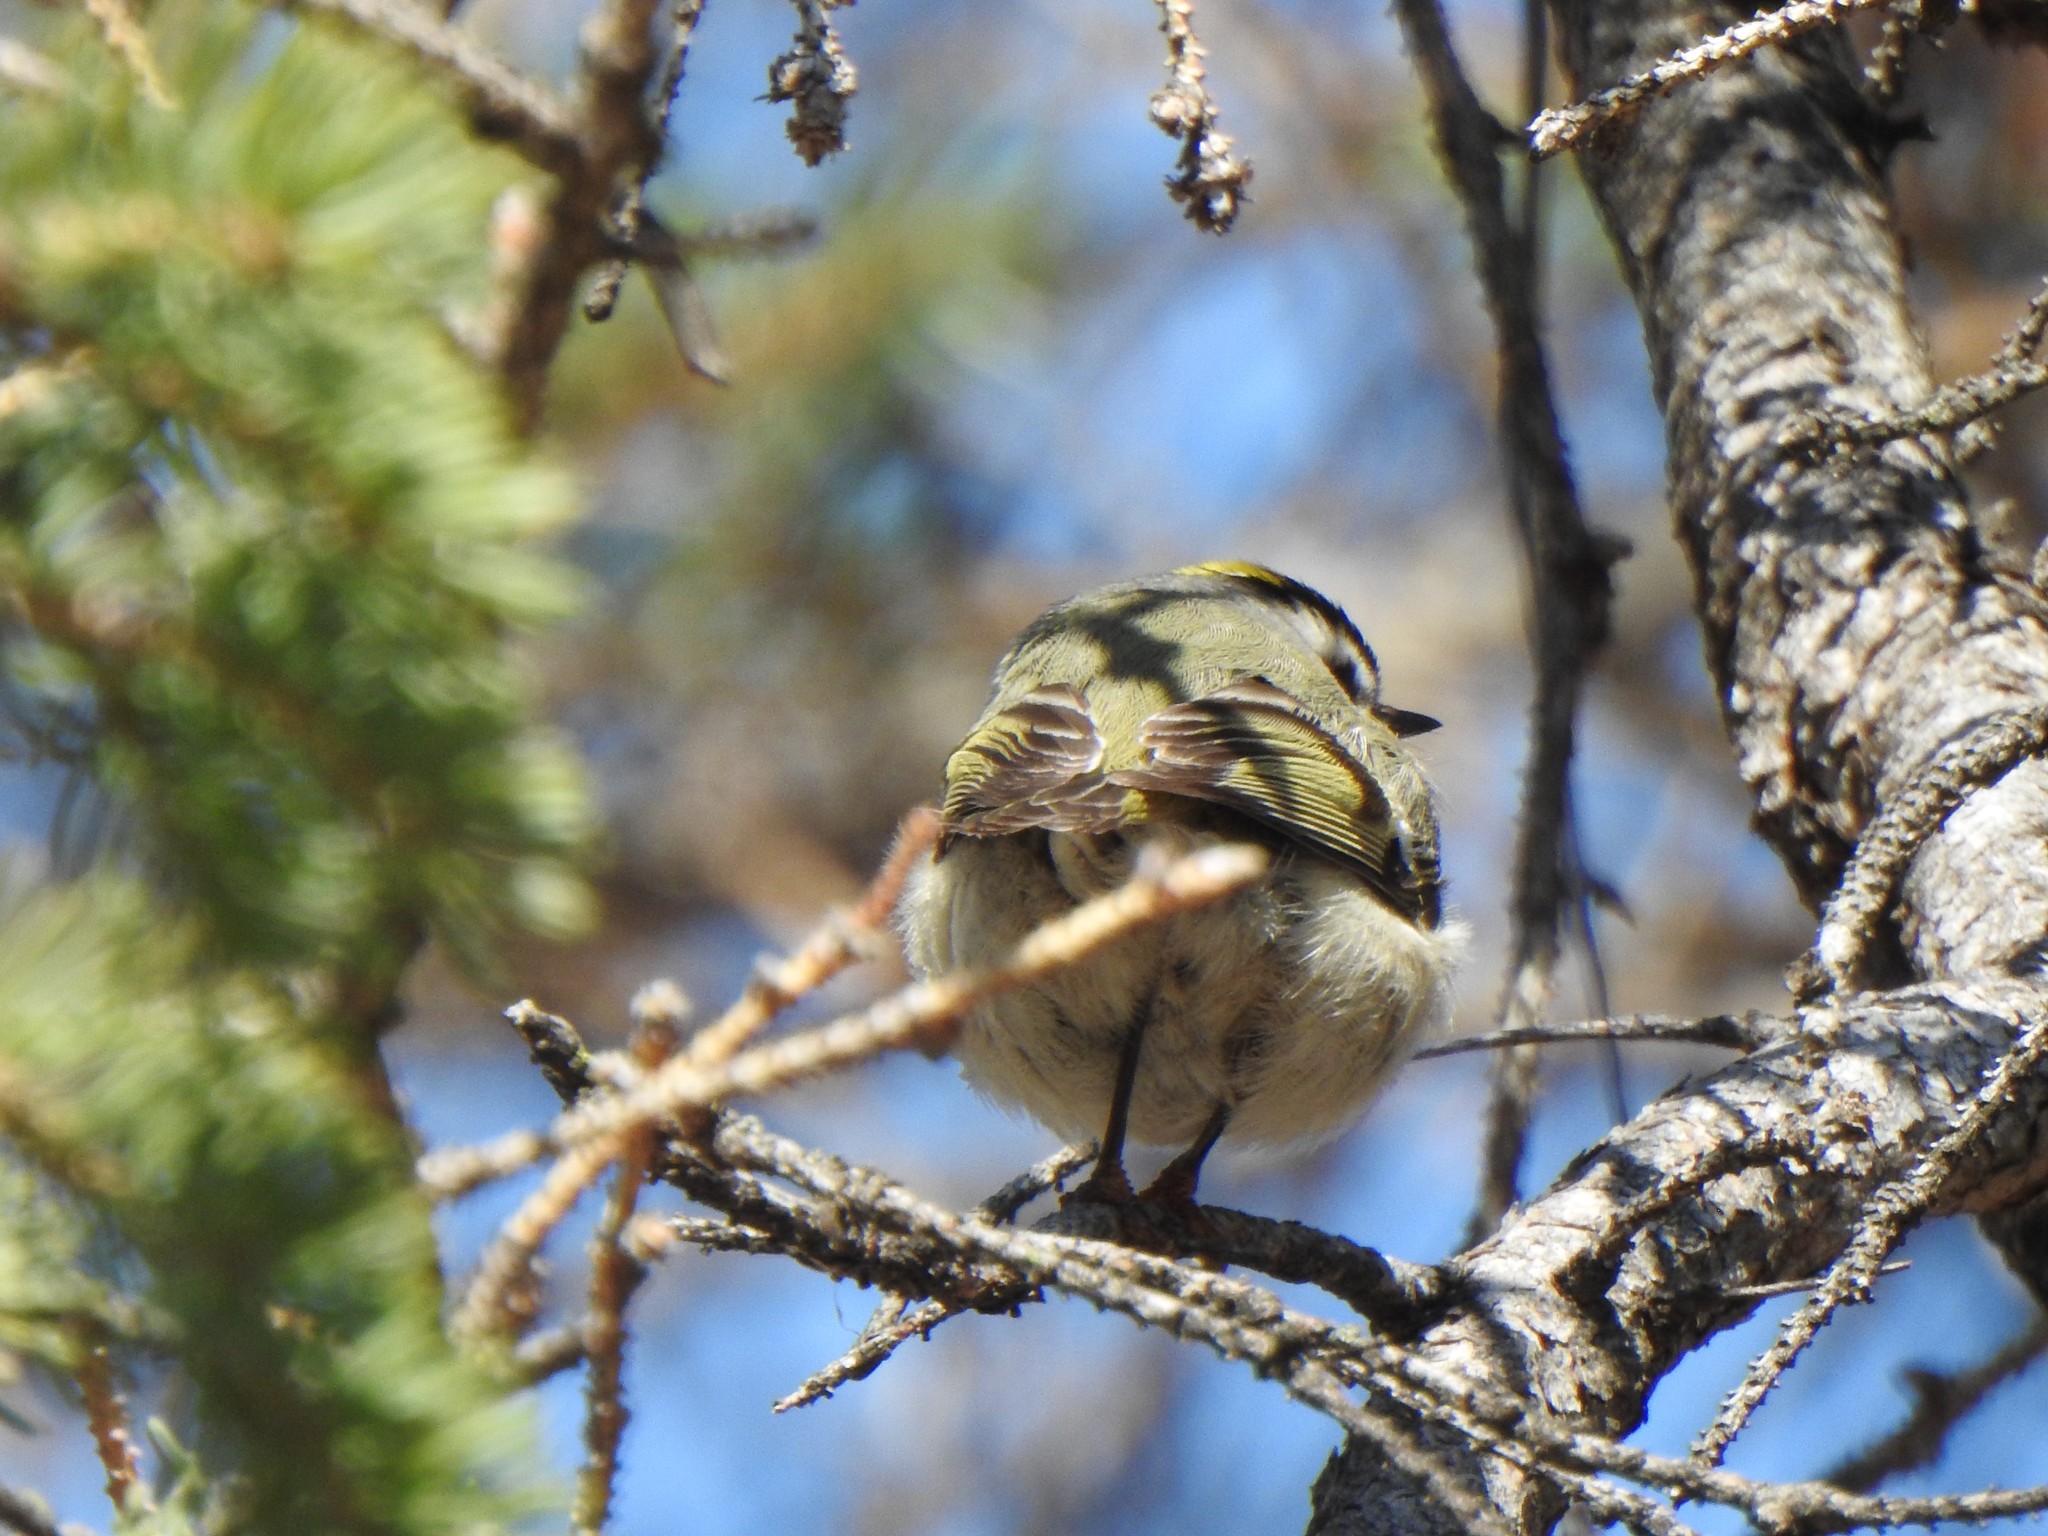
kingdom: Animalia
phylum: Chordata
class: Aves
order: Passeriformes
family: Regulidae
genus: Regulus
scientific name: Regulus satrapa
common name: Golden-crowned kinglet
